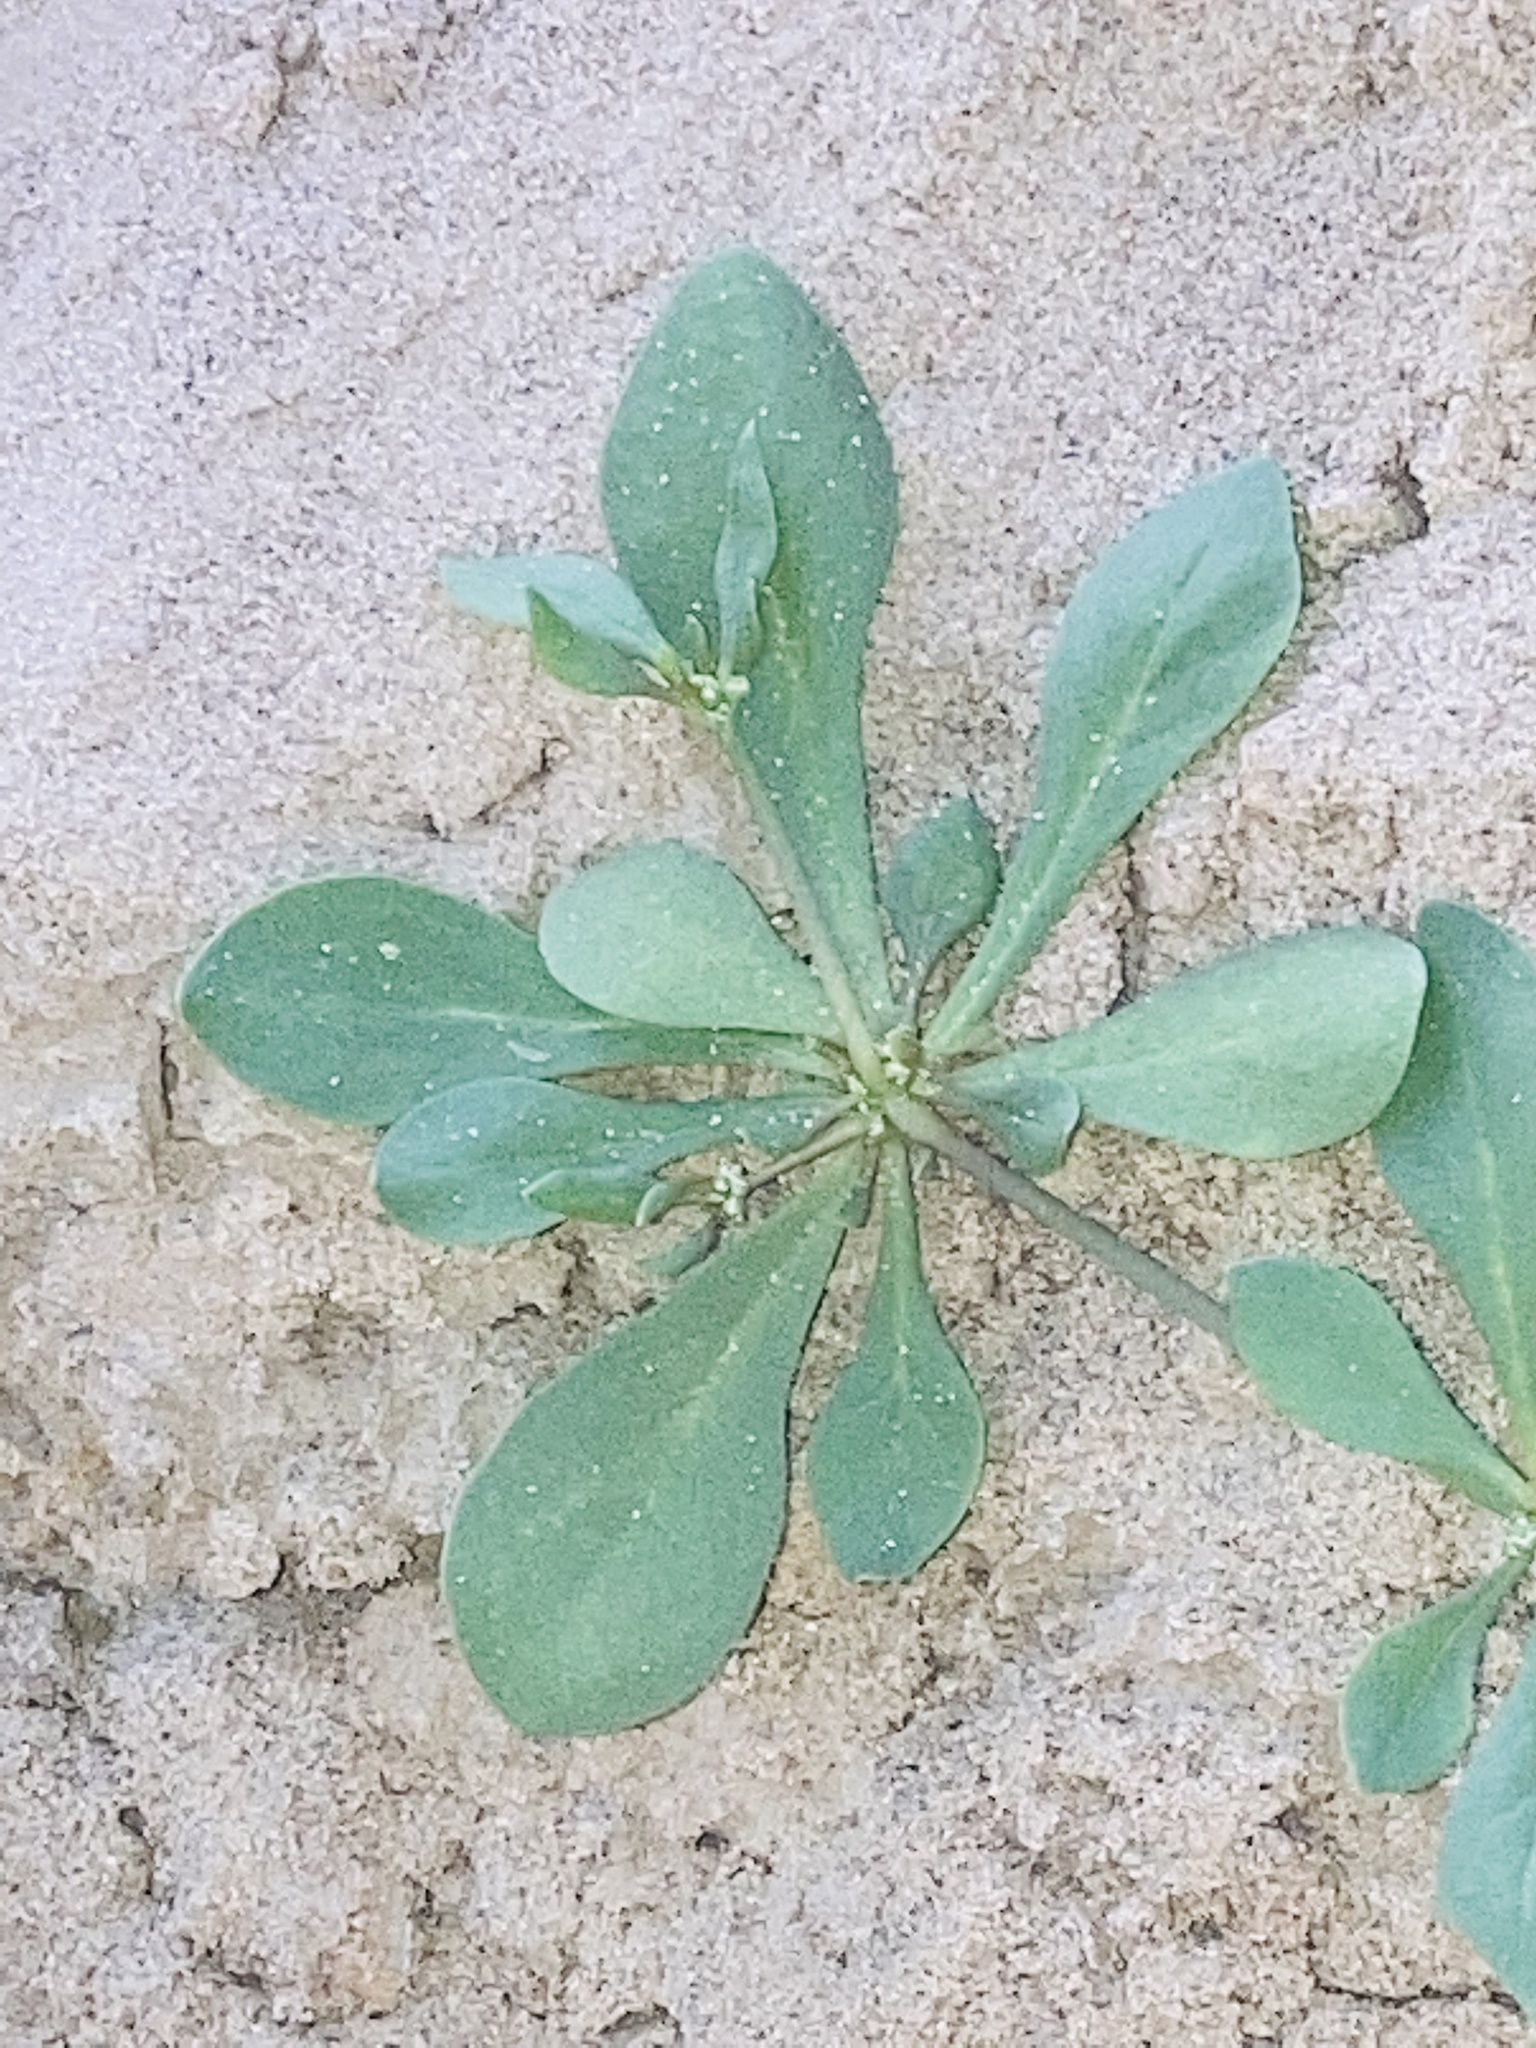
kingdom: Plantae
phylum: Tracheophyta
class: Magnoliopsida
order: Caryophyllales
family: Molluginaceae
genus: Mollugo
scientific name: Mollugo verticillata
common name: Green carpetweed
